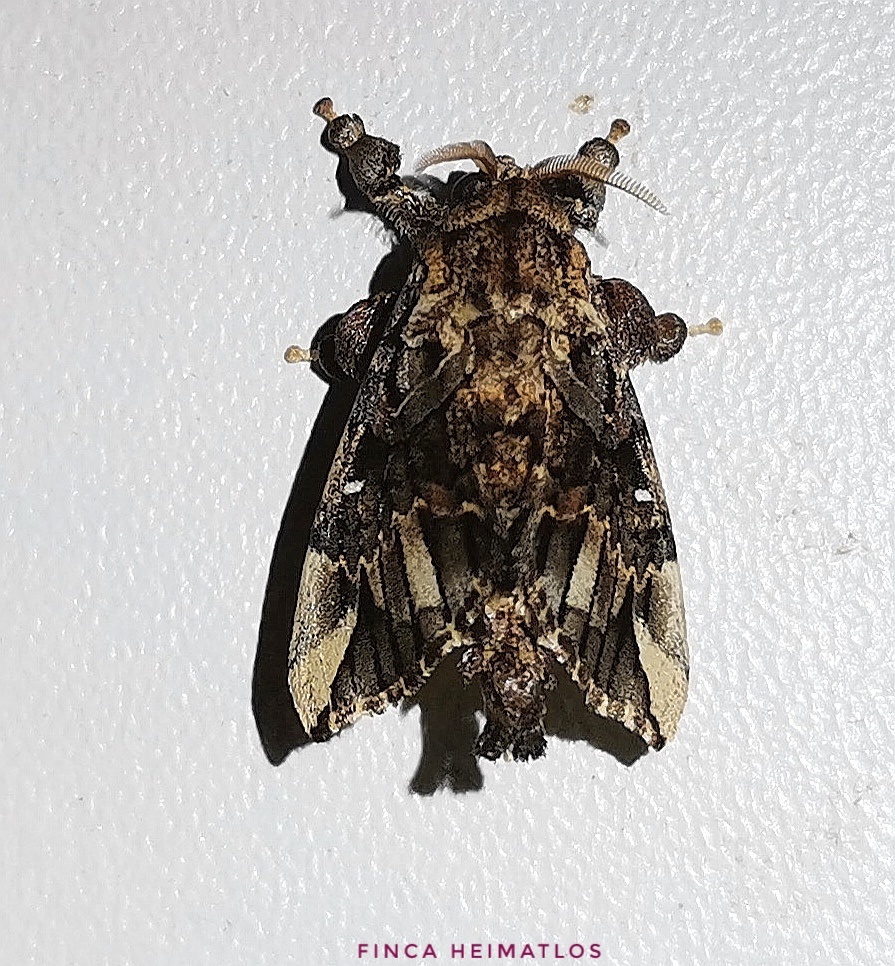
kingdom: Animalia
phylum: Arthropoda
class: Insecta
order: Lepidoptera
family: Bombycidae
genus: Tamphana
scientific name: Tamphana marmorea
